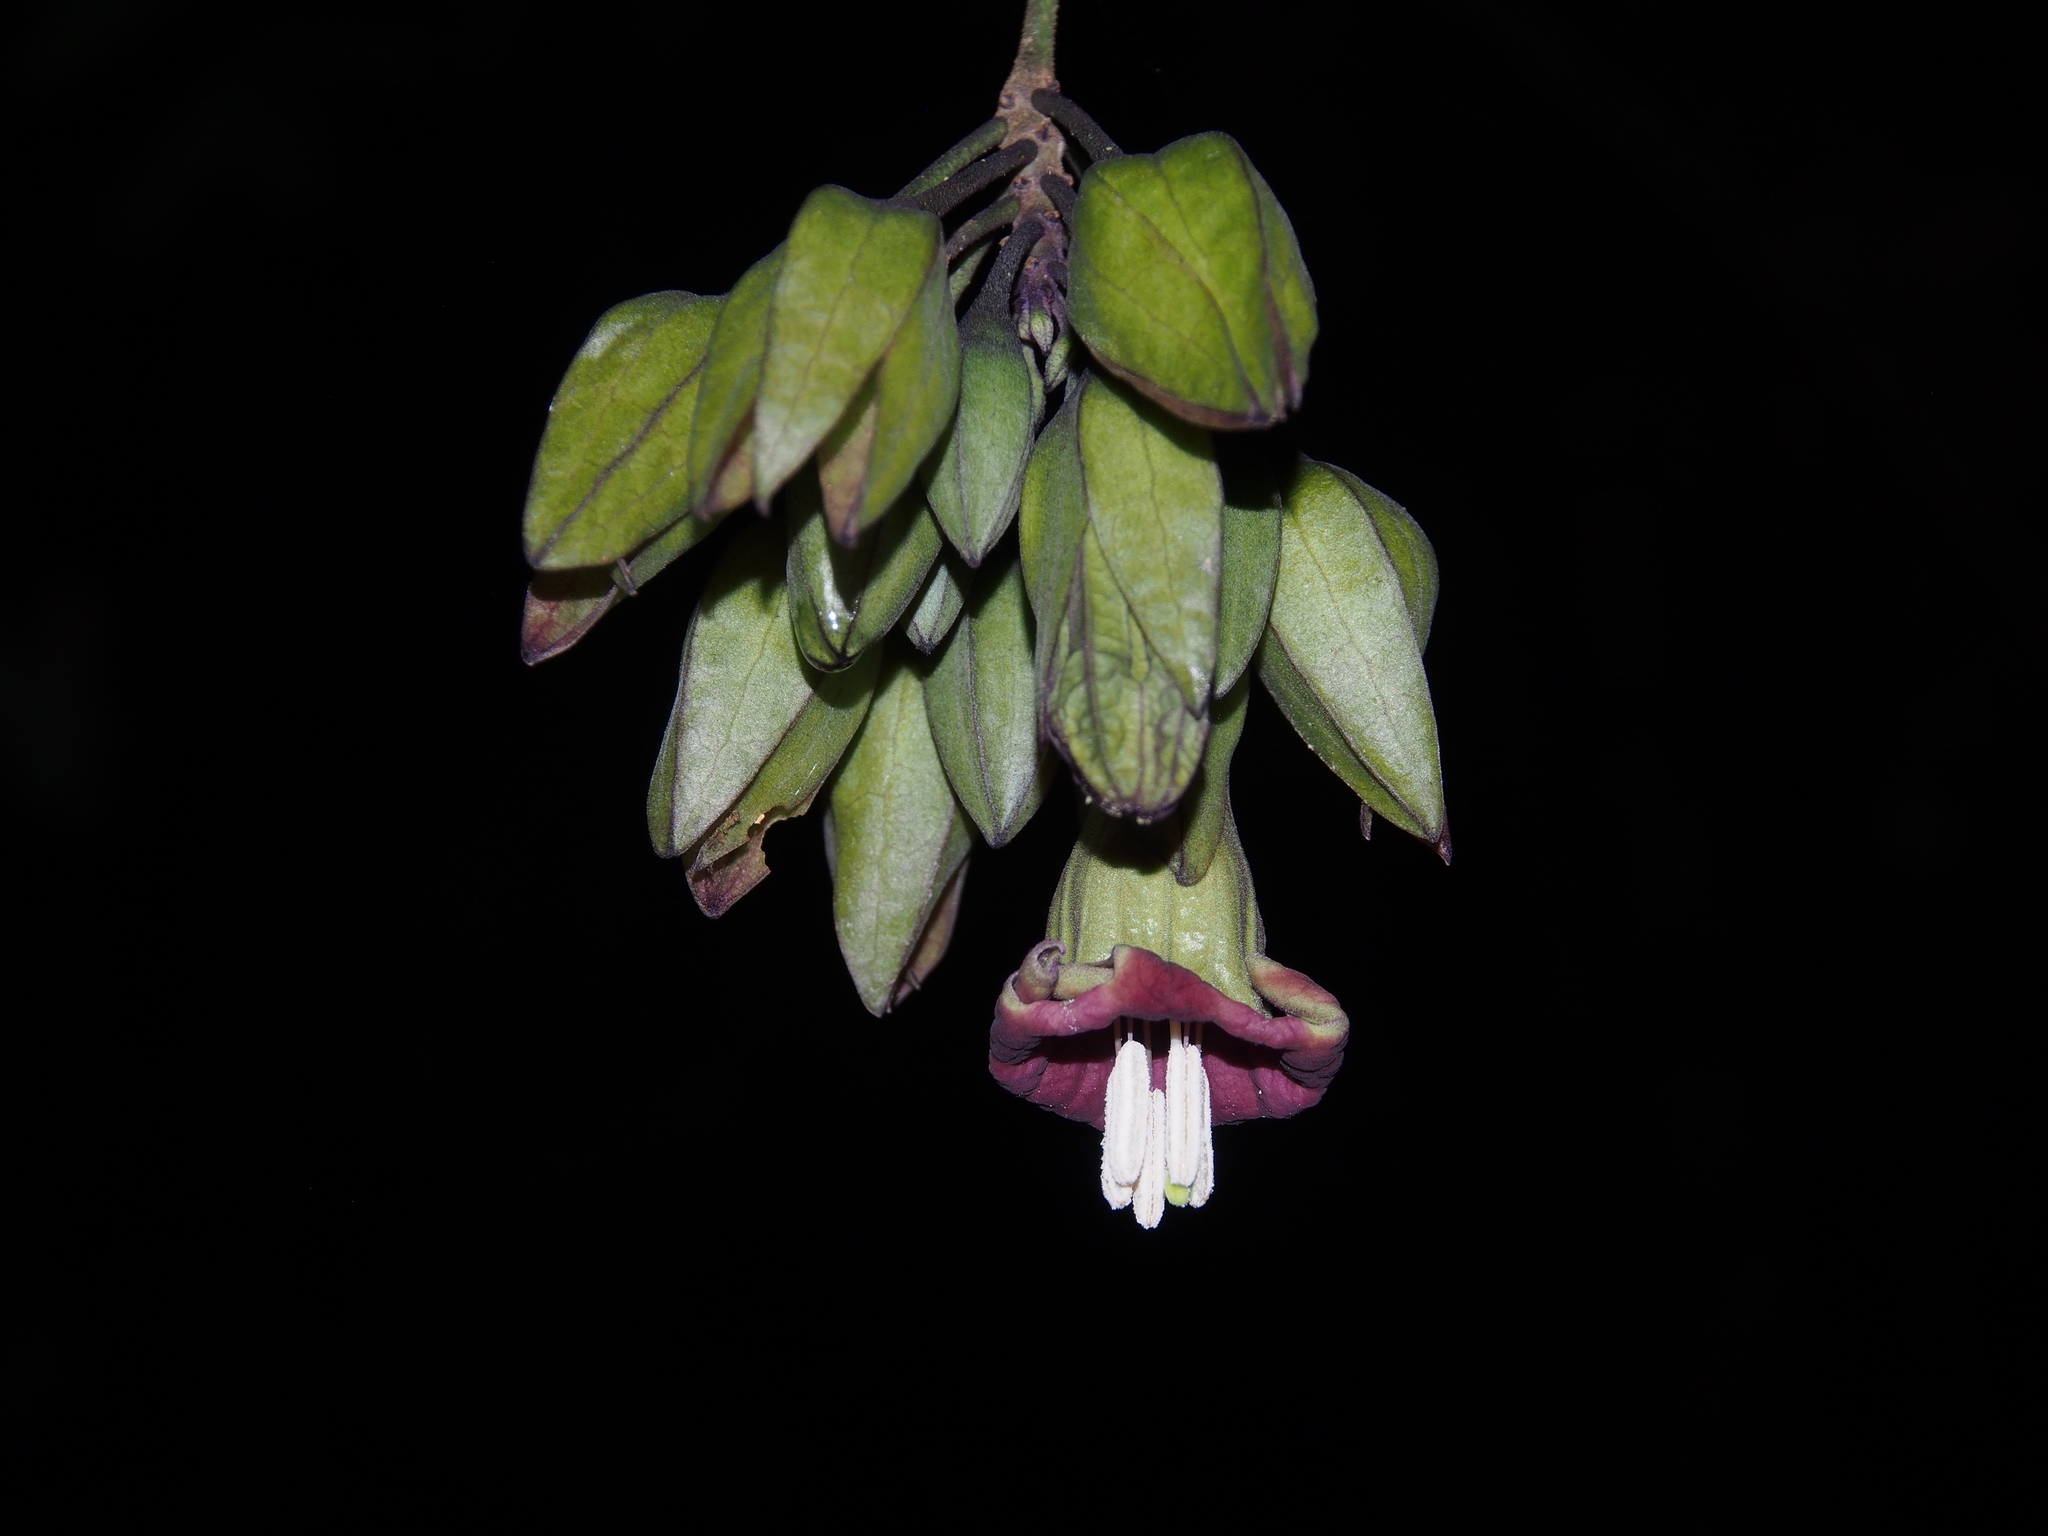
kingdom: Plantae
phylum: Tracheophyta
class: Magnoliopsida
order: Solanales
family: Solanaceae
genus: Merinthopodium
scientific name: Merinthopodium neuranthum
